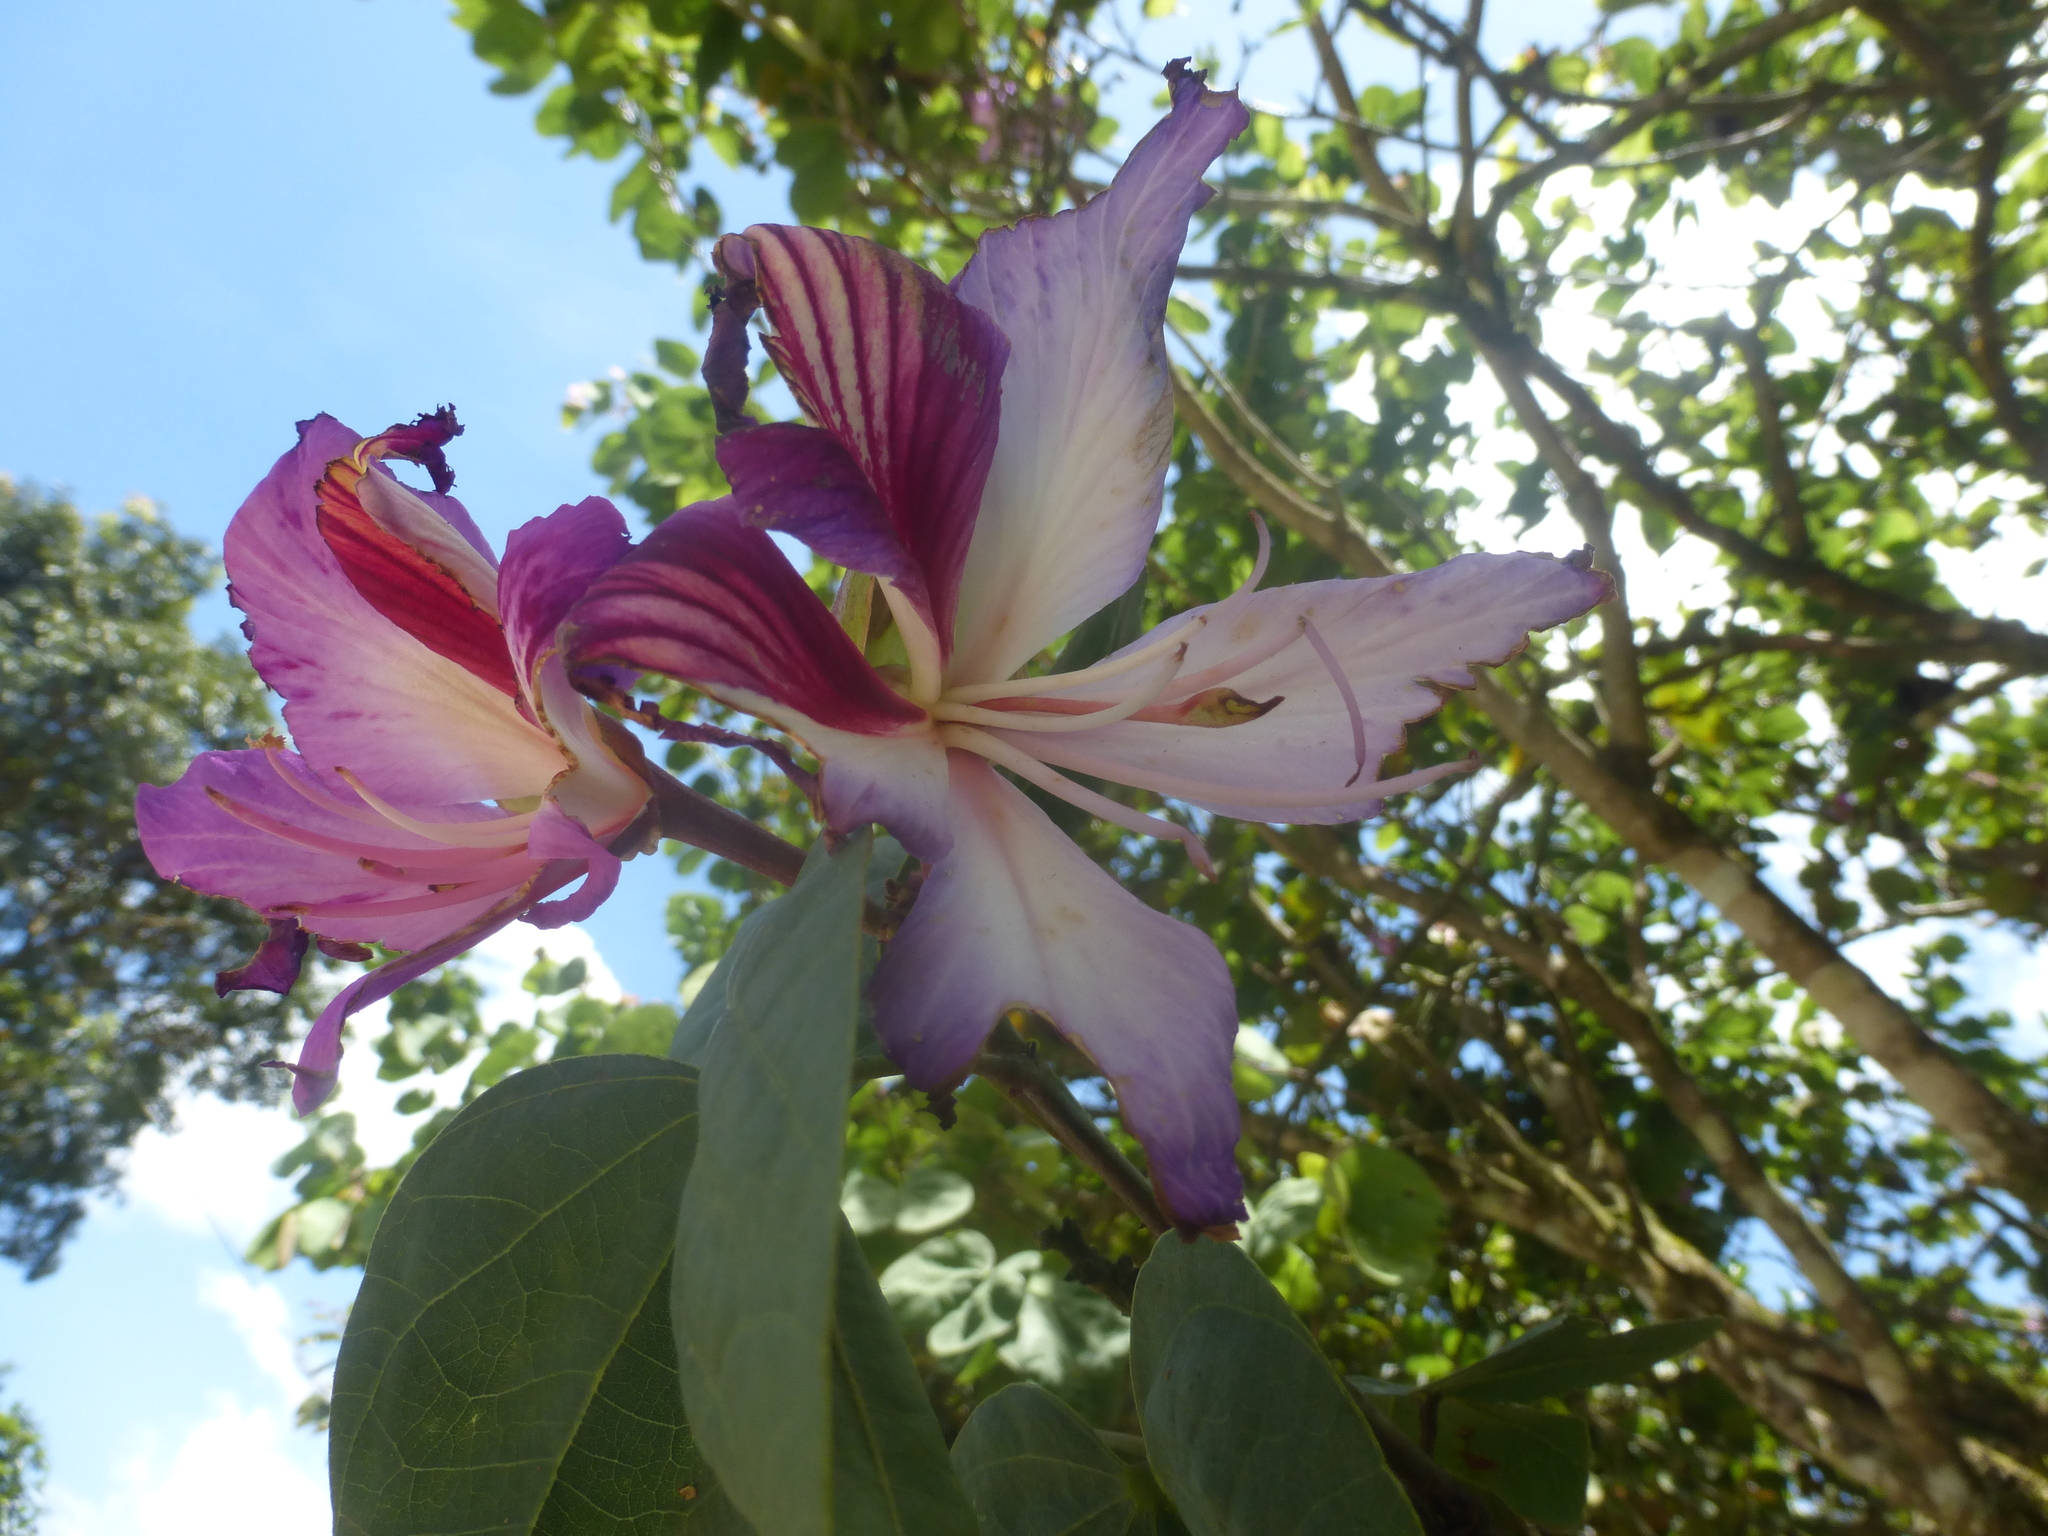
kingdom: Plantae
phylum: Tracheophyta
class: Magnoliopsida
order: Fabales
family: Fabaceae
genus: Bauhinia
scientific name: Bauhinia variegata
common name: Mountain ebony
